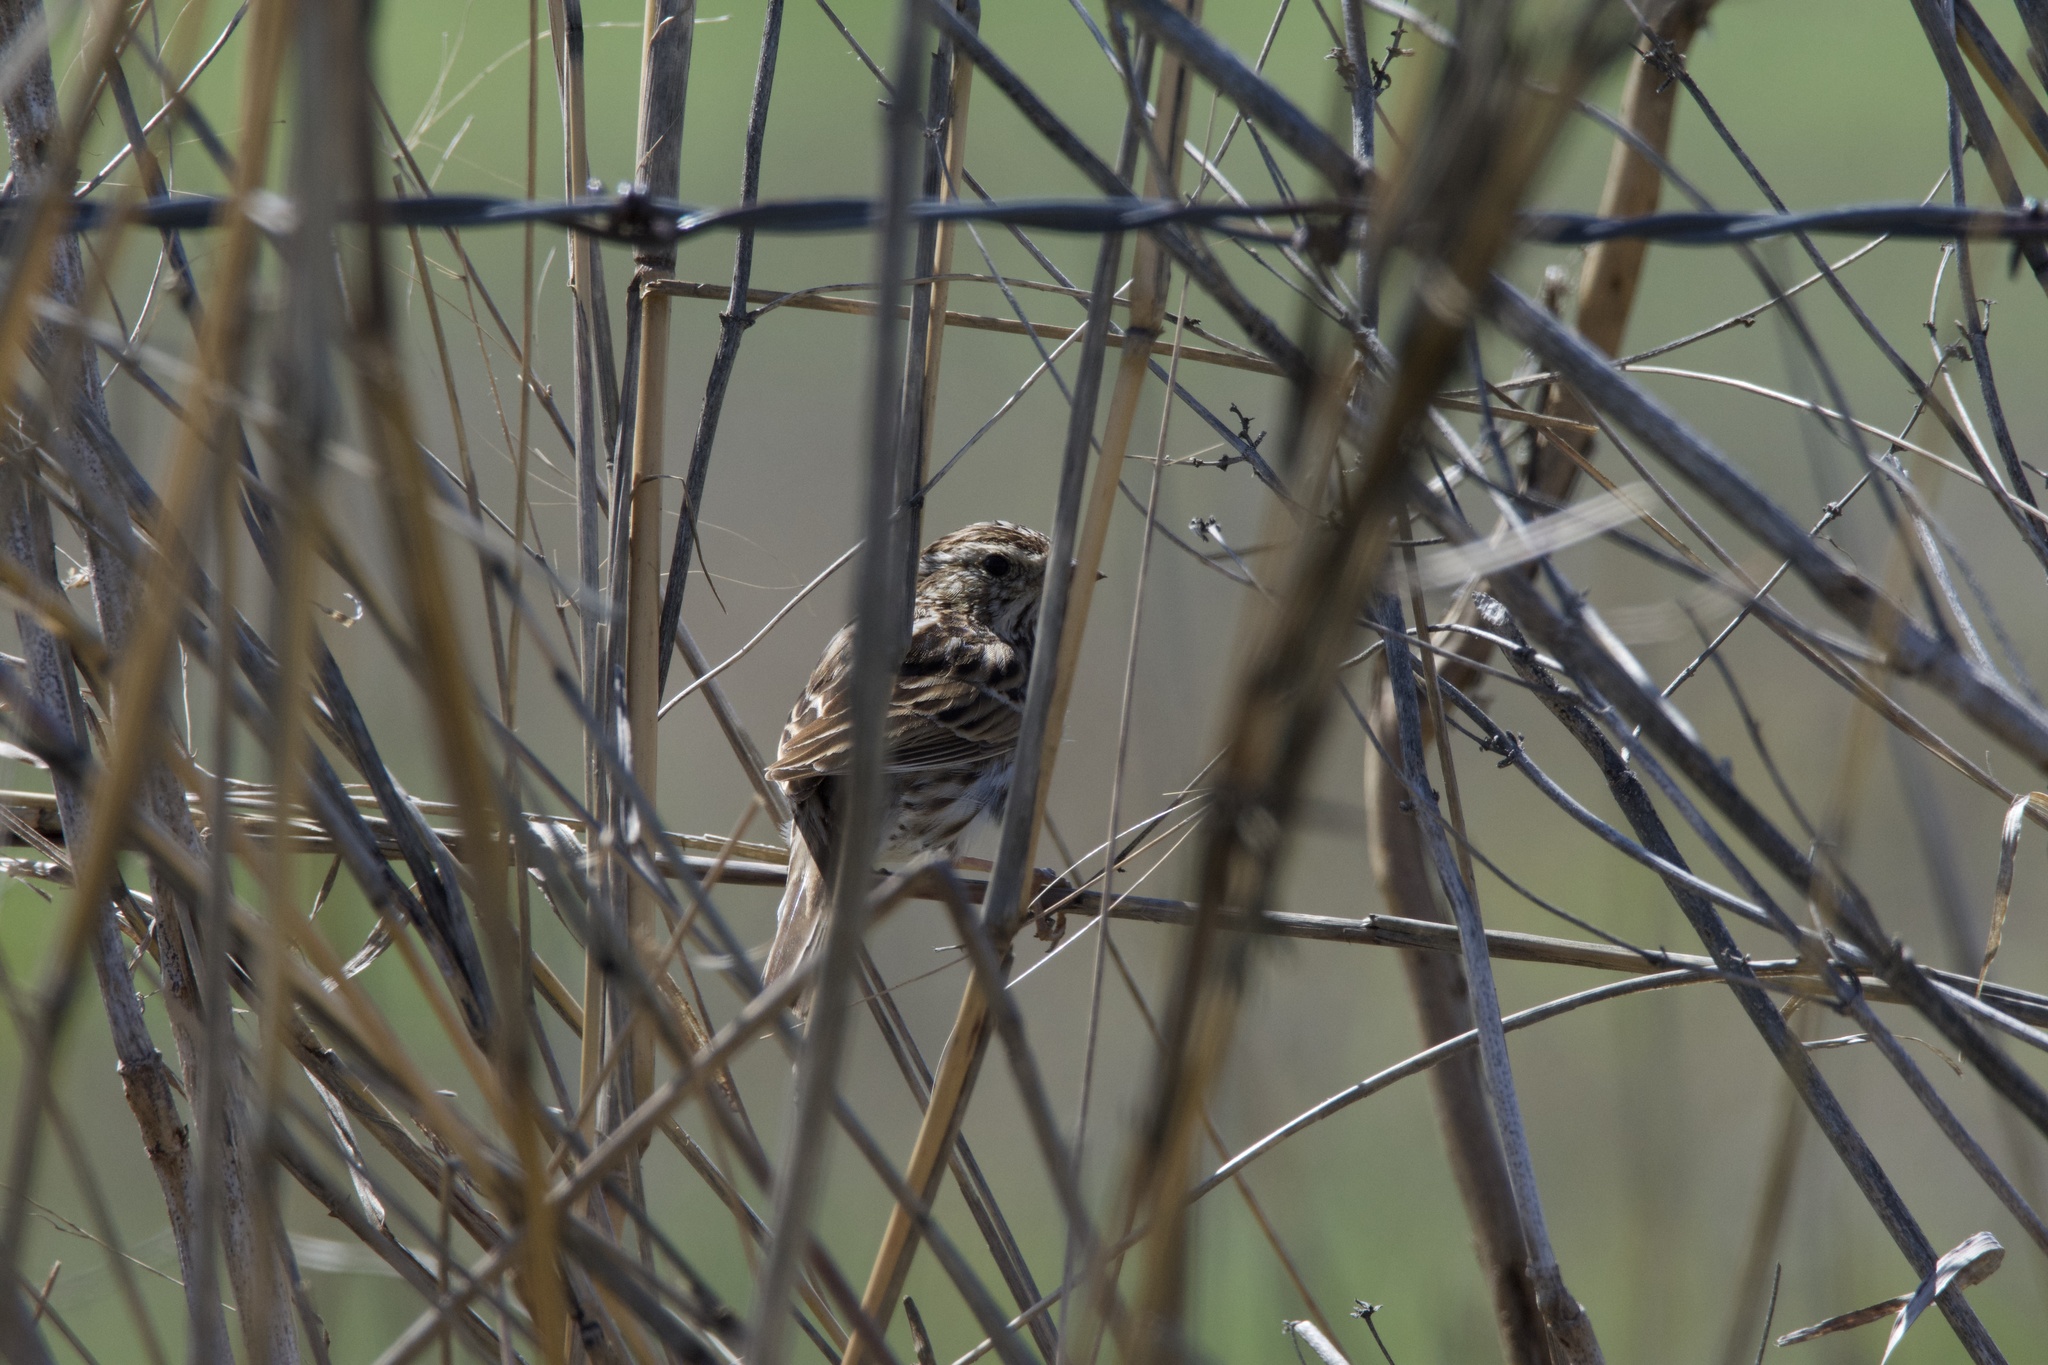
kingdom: Animalia
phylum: Chordata
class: Aves
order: Passeriformes
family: Passerellidae
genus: Passerculus
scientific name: Passerculus sandwichensis
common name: Savannah sparrow
